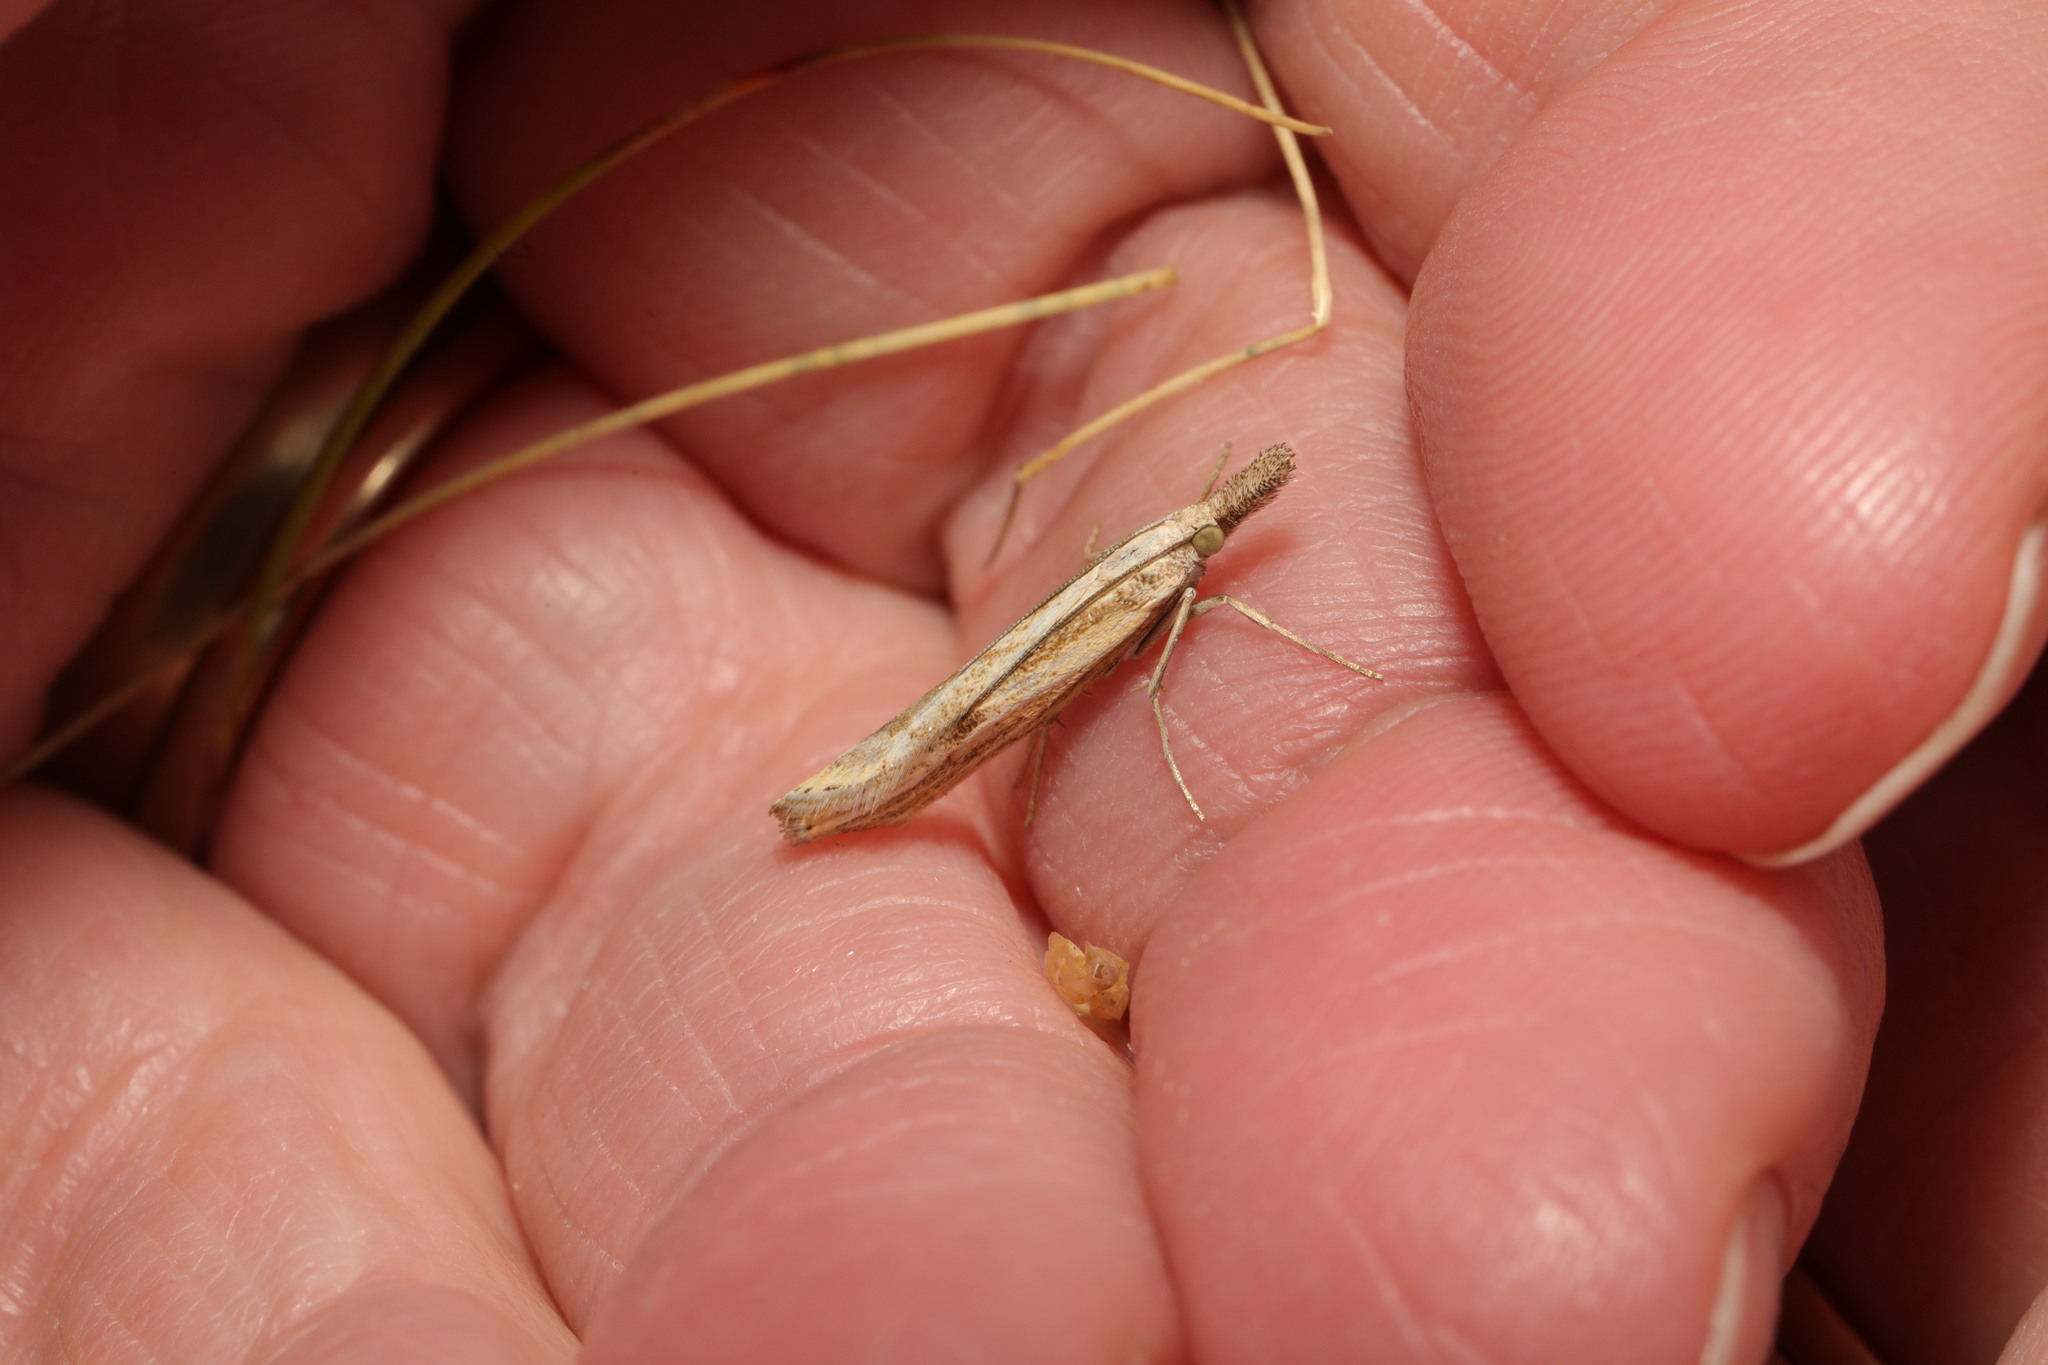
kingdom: Animalia
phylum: Arthropoda
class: Insecta
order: Lepidoptera
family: Crambidae
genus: Agriphila
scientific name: Agriphila tristellus
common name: Common grass-veneer
